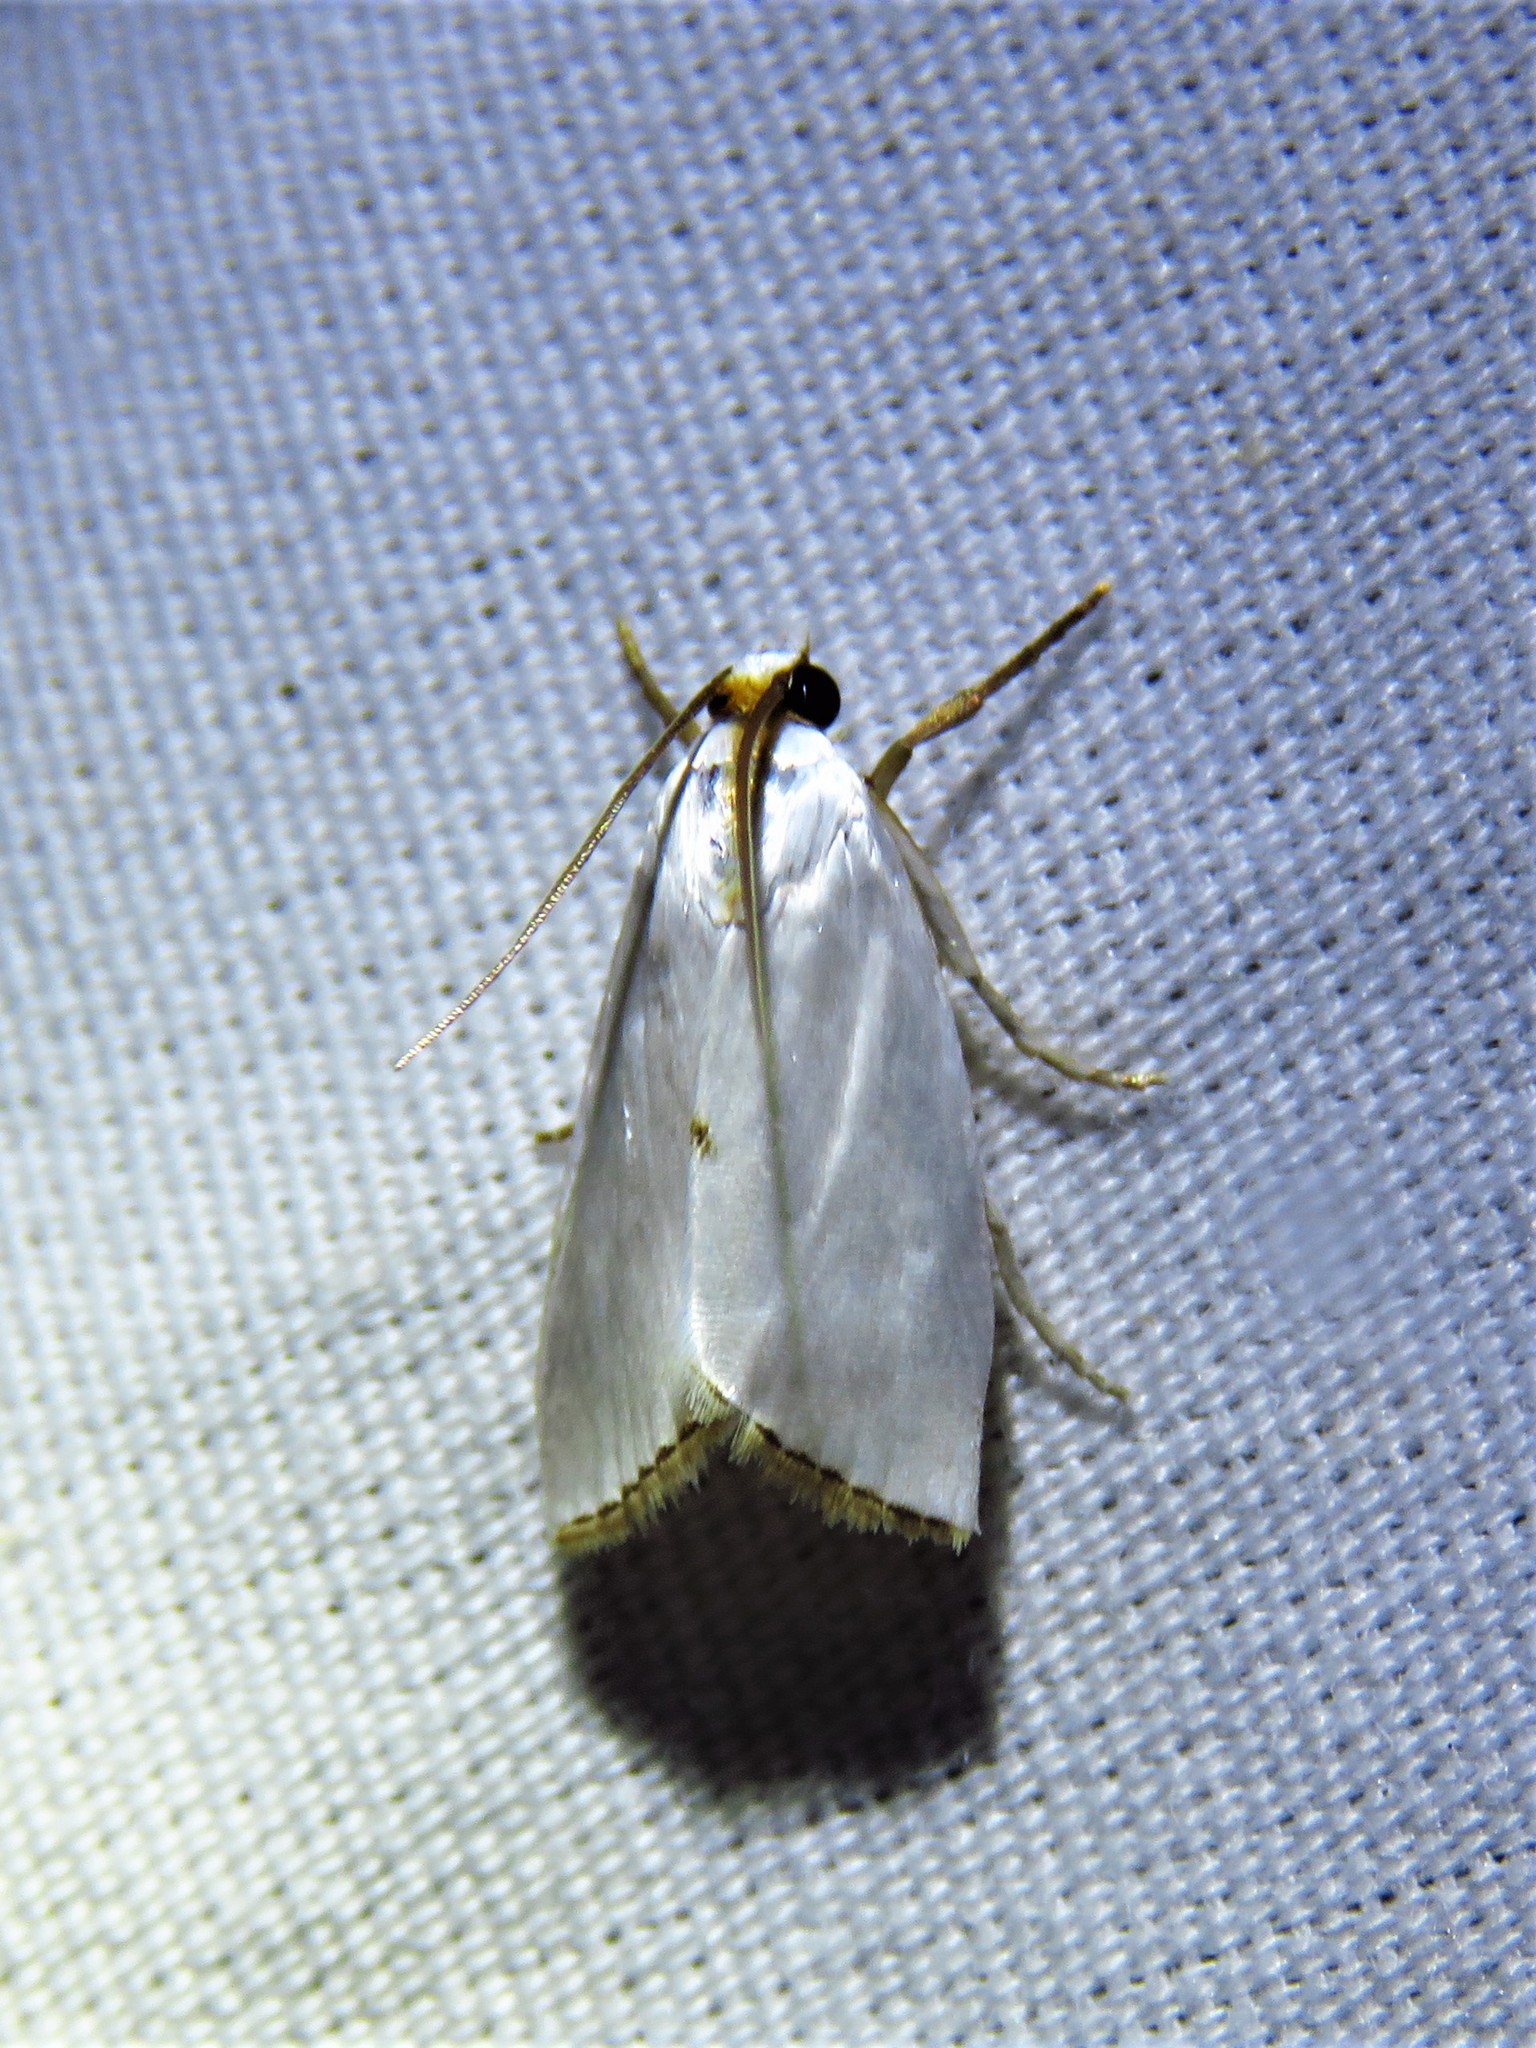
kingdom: Animalia
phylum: Arthropoda
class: Insecta
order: Lepidoptera
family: Crambidae
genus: Argyria
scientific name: Argyria nivalis
